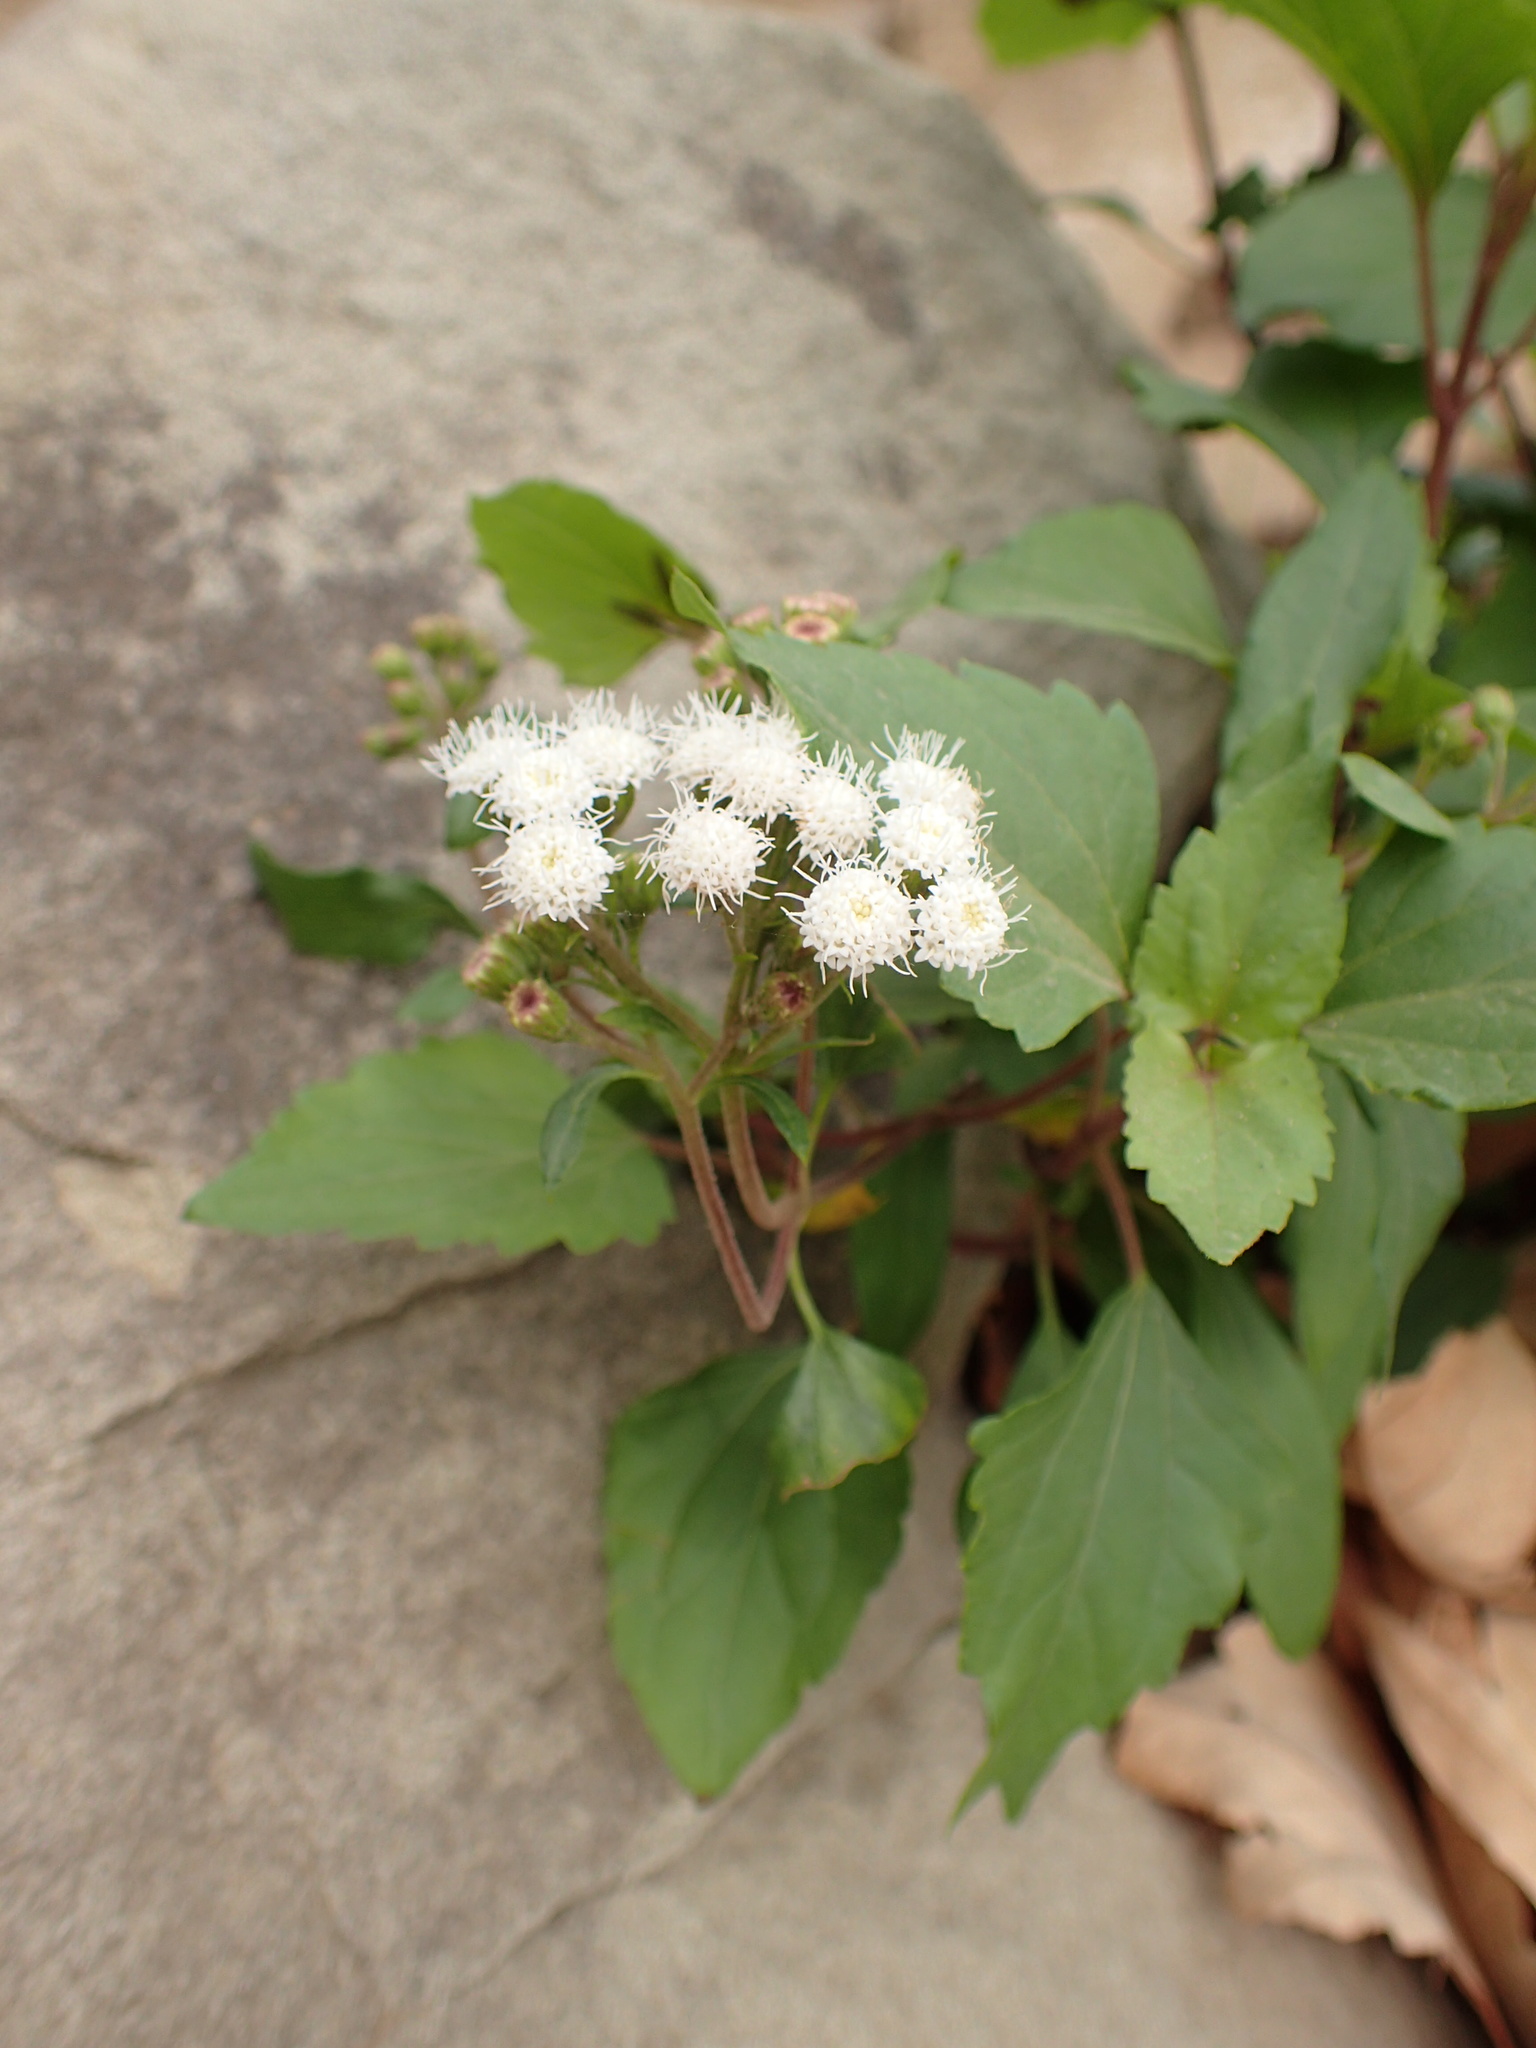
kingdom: Plantae
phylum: Tracheophyta
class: Magnoliopsida
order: Asterales
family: Asteraceae
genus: Ageratina
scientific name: Ageratina adenophora
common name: Sticky snakeroot
